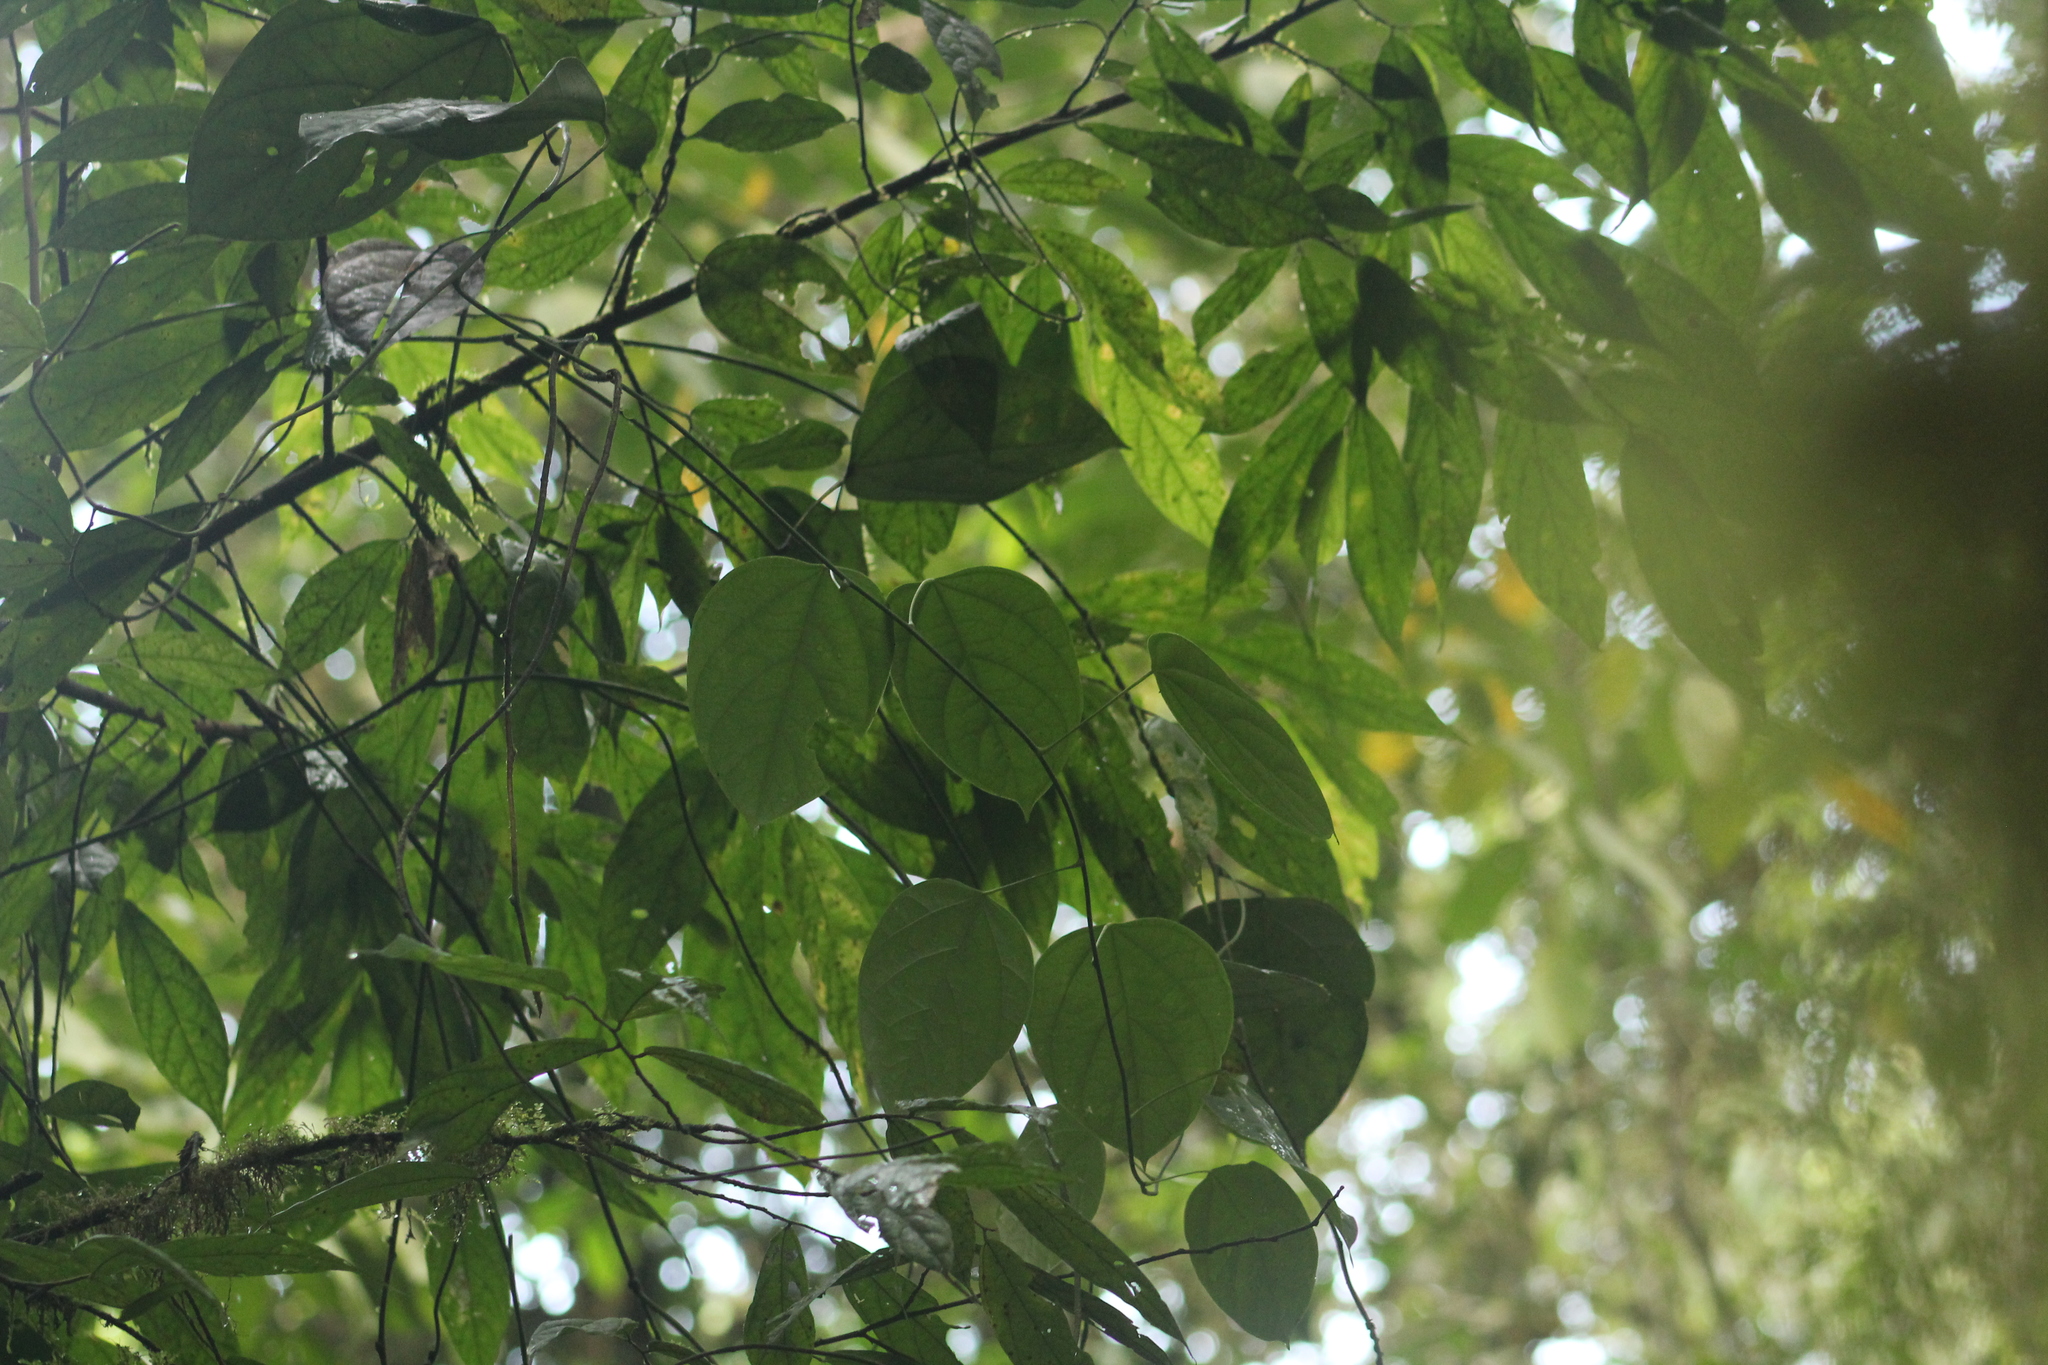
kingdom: Plantae
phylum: Tracheophyta
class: Magnoliopsida
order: Malvales
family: Malvaceae
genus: Theobroma
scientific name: Theobroma gileri
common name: Mountain cocoa
